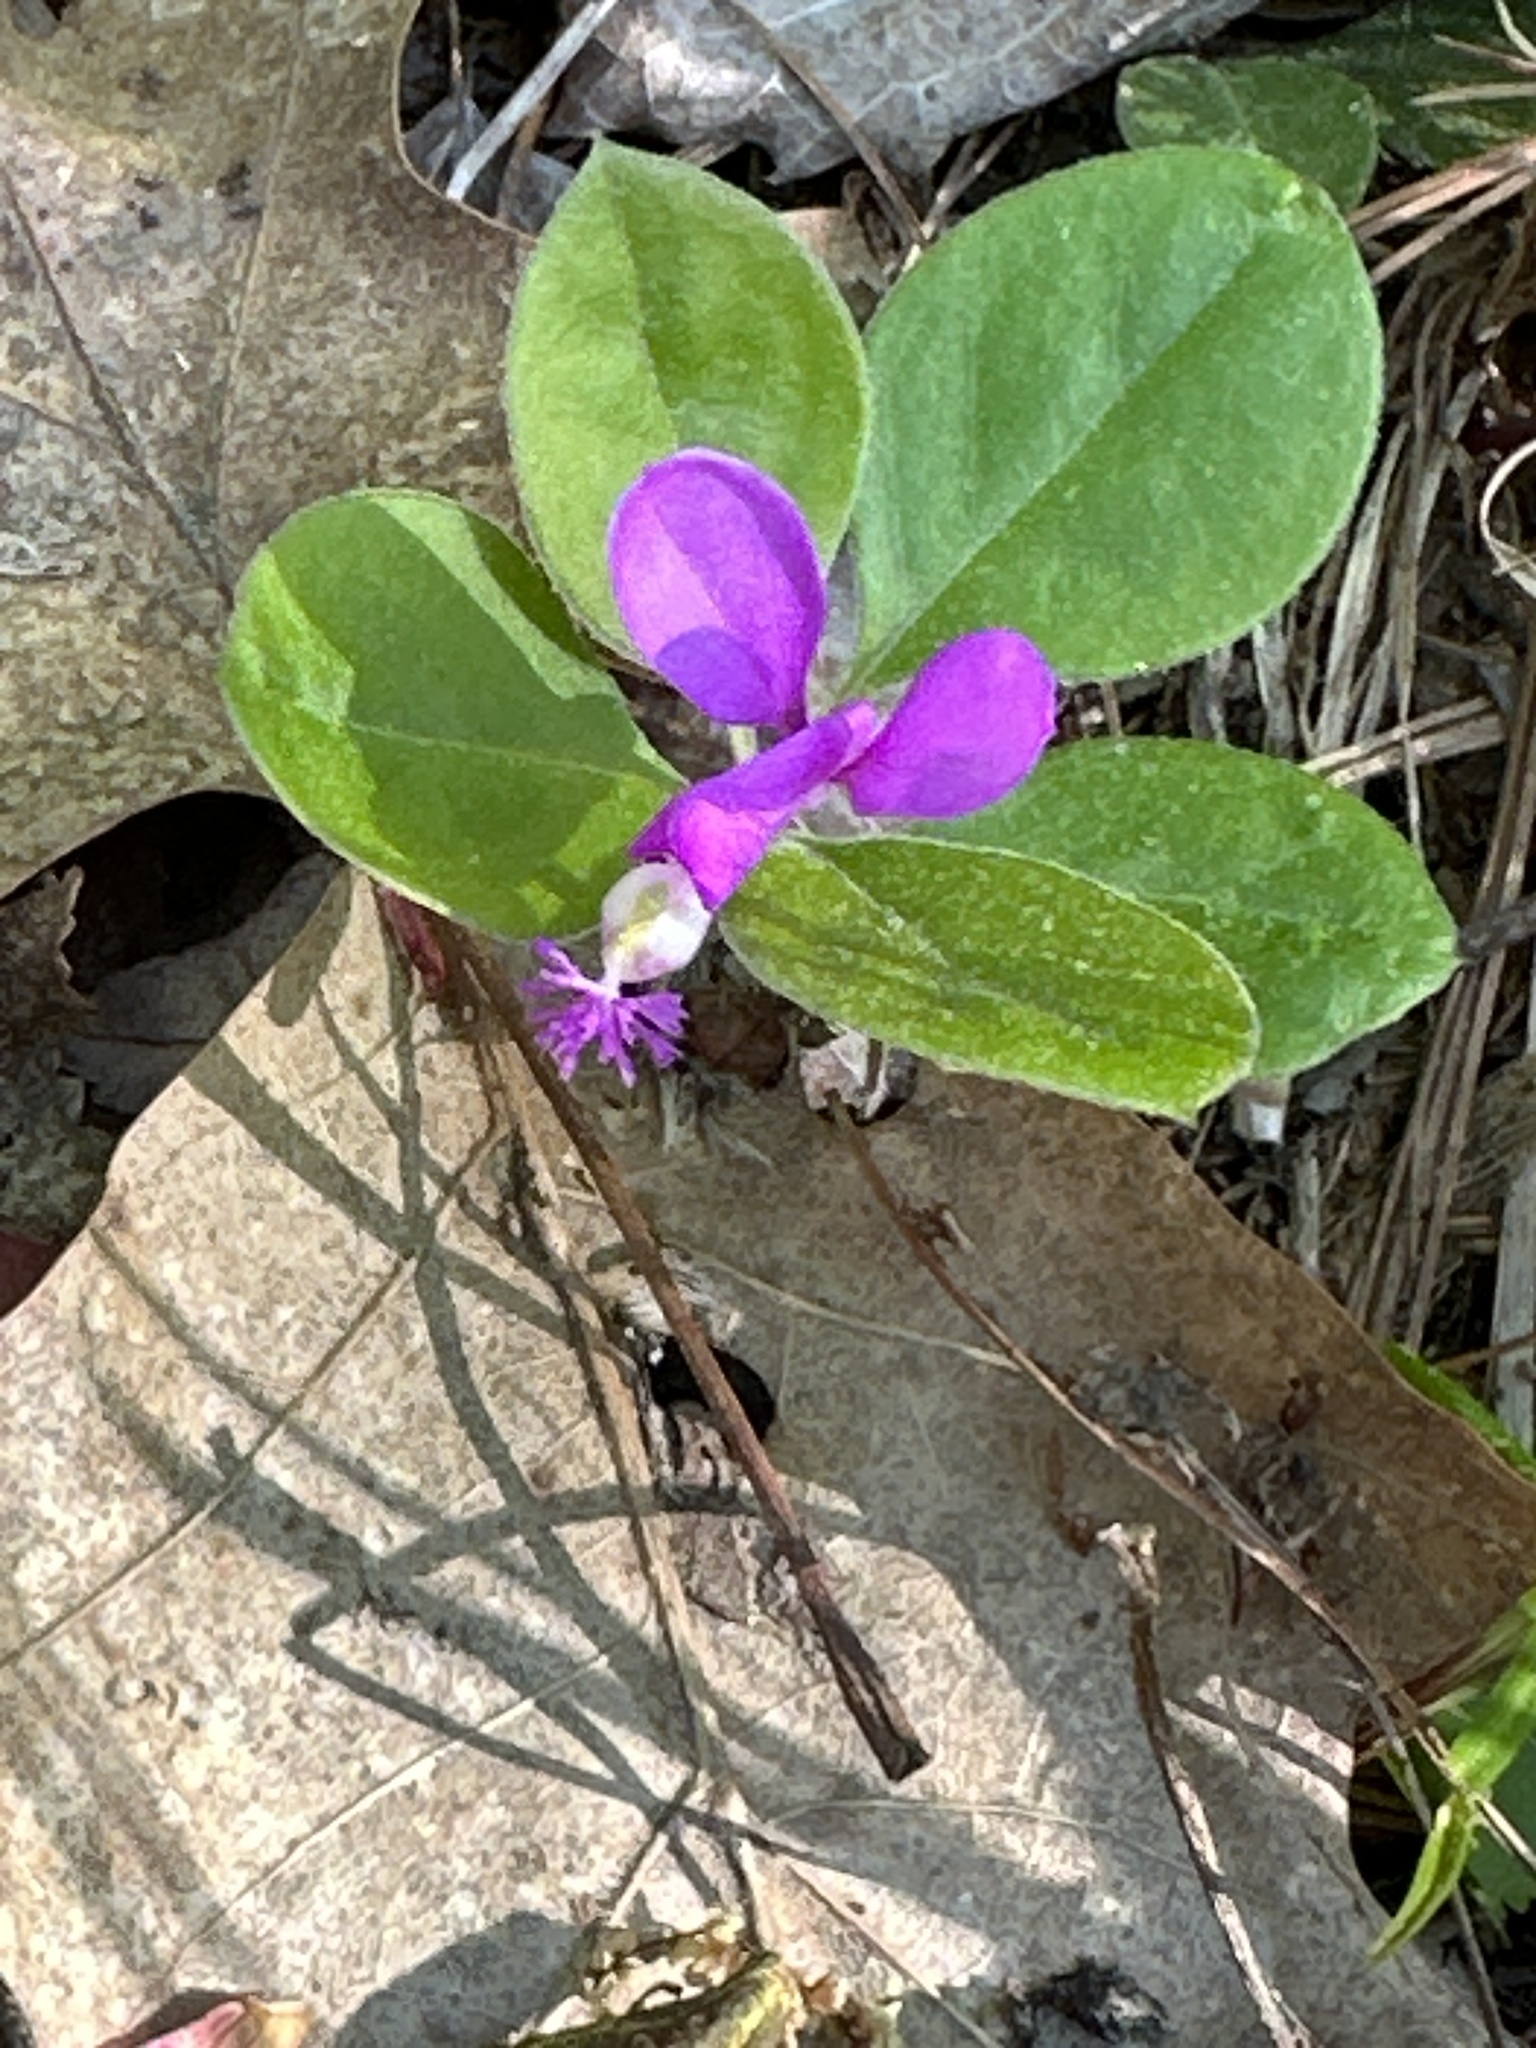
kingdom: Plantae
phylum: Tracheophyta
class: Magnoliopsida
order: Fabales
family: Polygalaceae
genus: Polygaloides
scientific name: Polygaloides paucifolia
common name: Bird-on-the-wing
